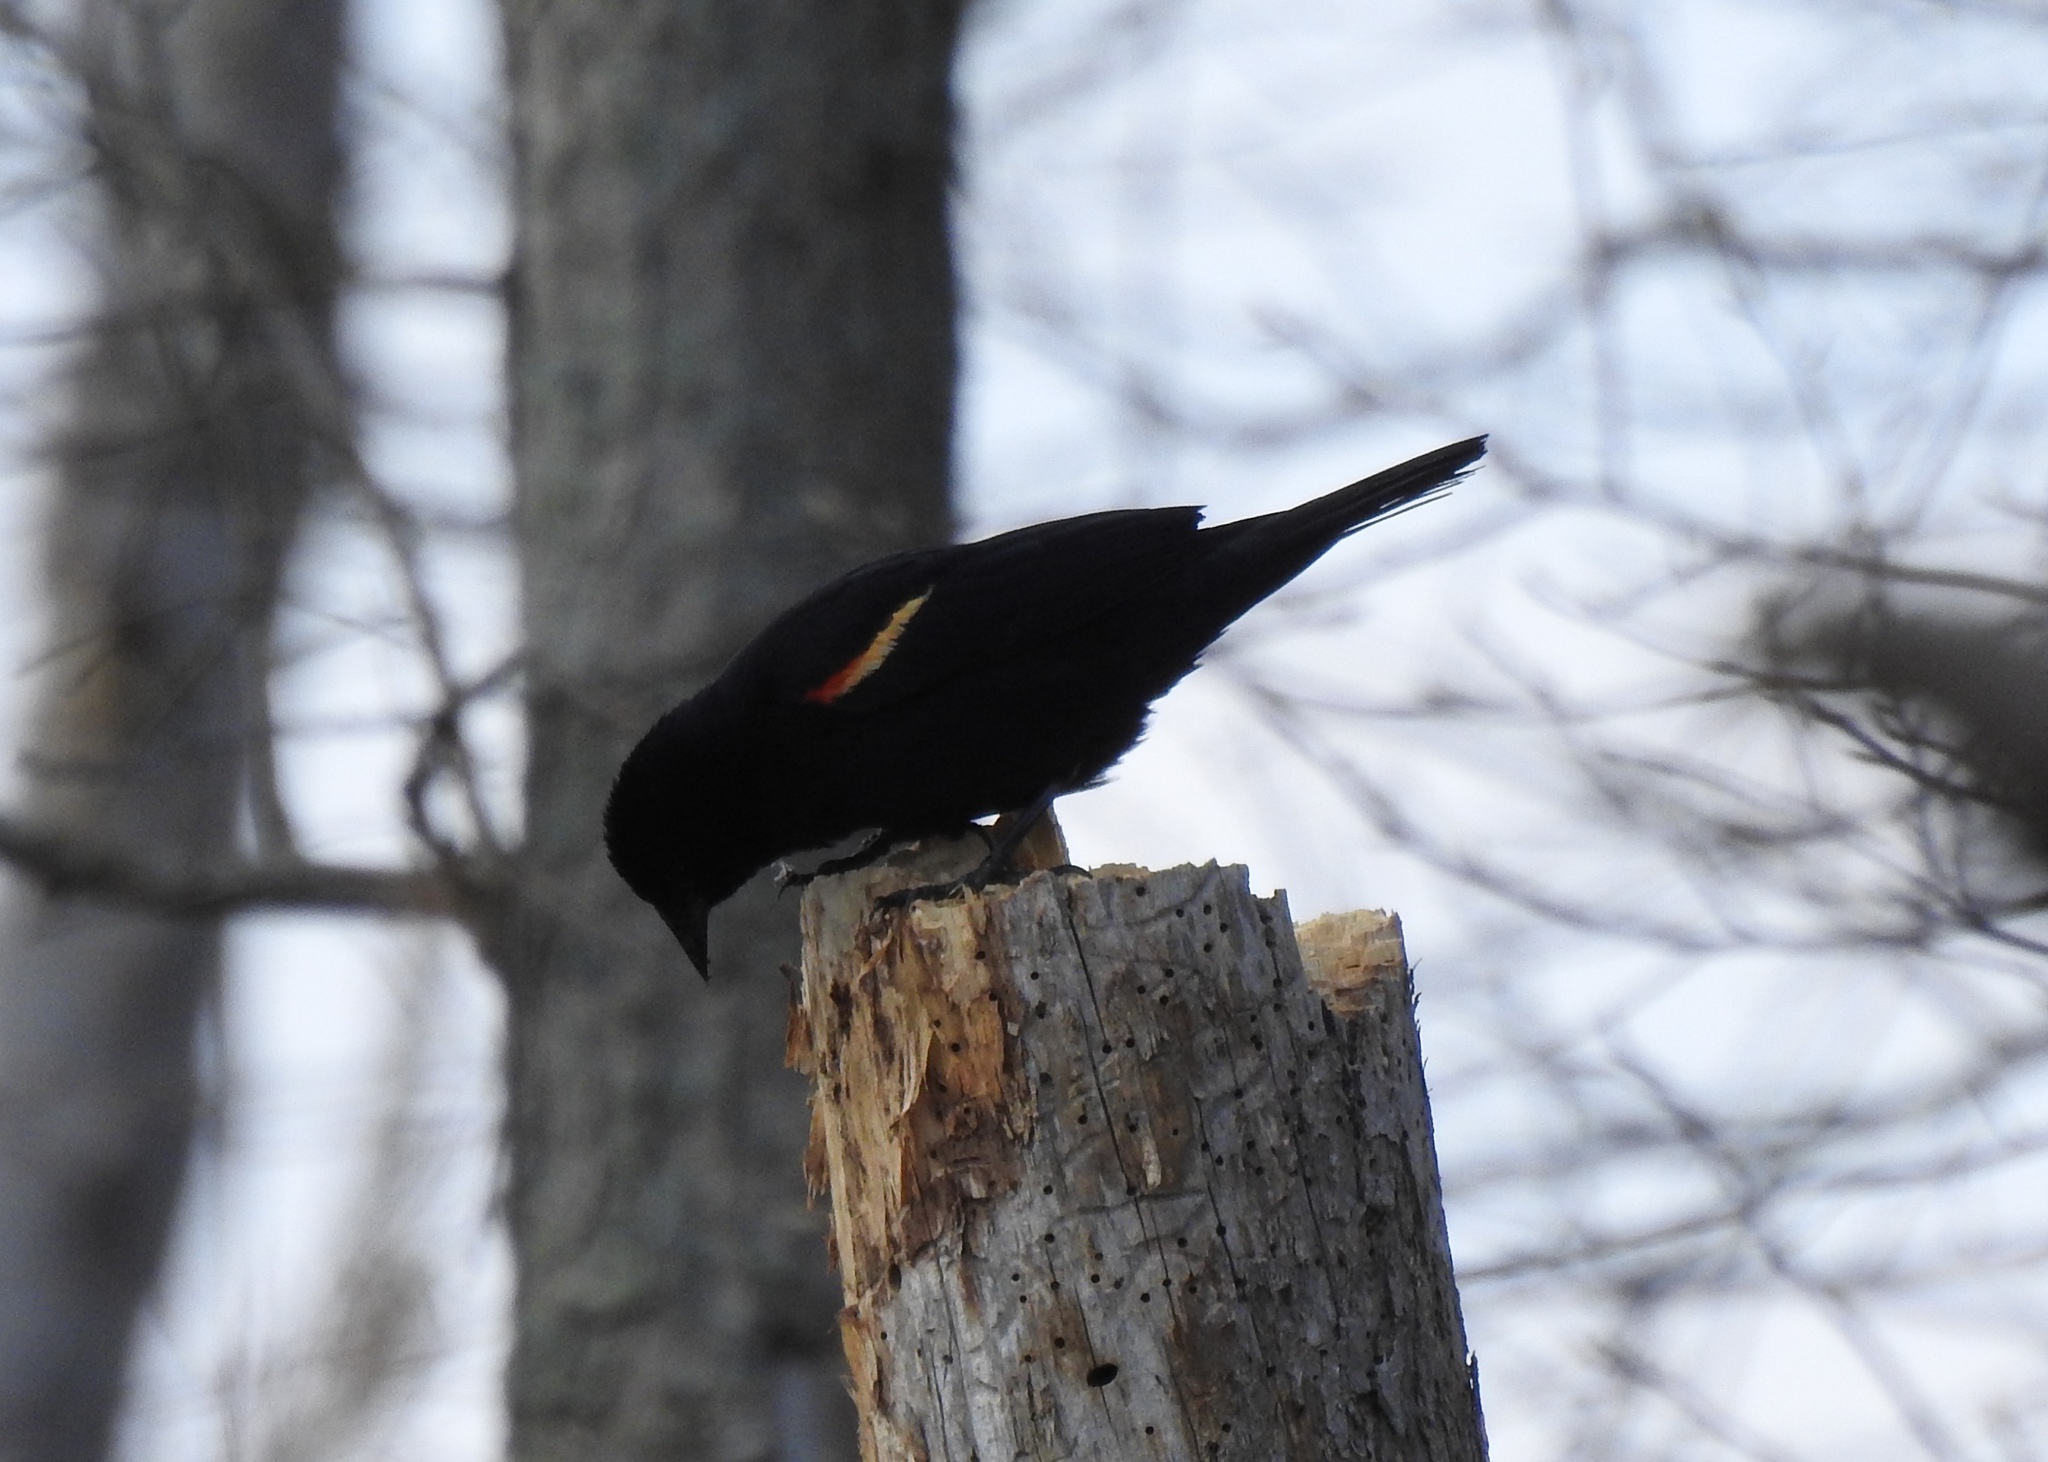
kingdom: Animalia
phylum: Chordata
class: Aves
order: Passeriformes
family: Icteridae
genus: Agelaius
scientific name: Agelaius phoeniceus
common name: Red-winged blackbird
